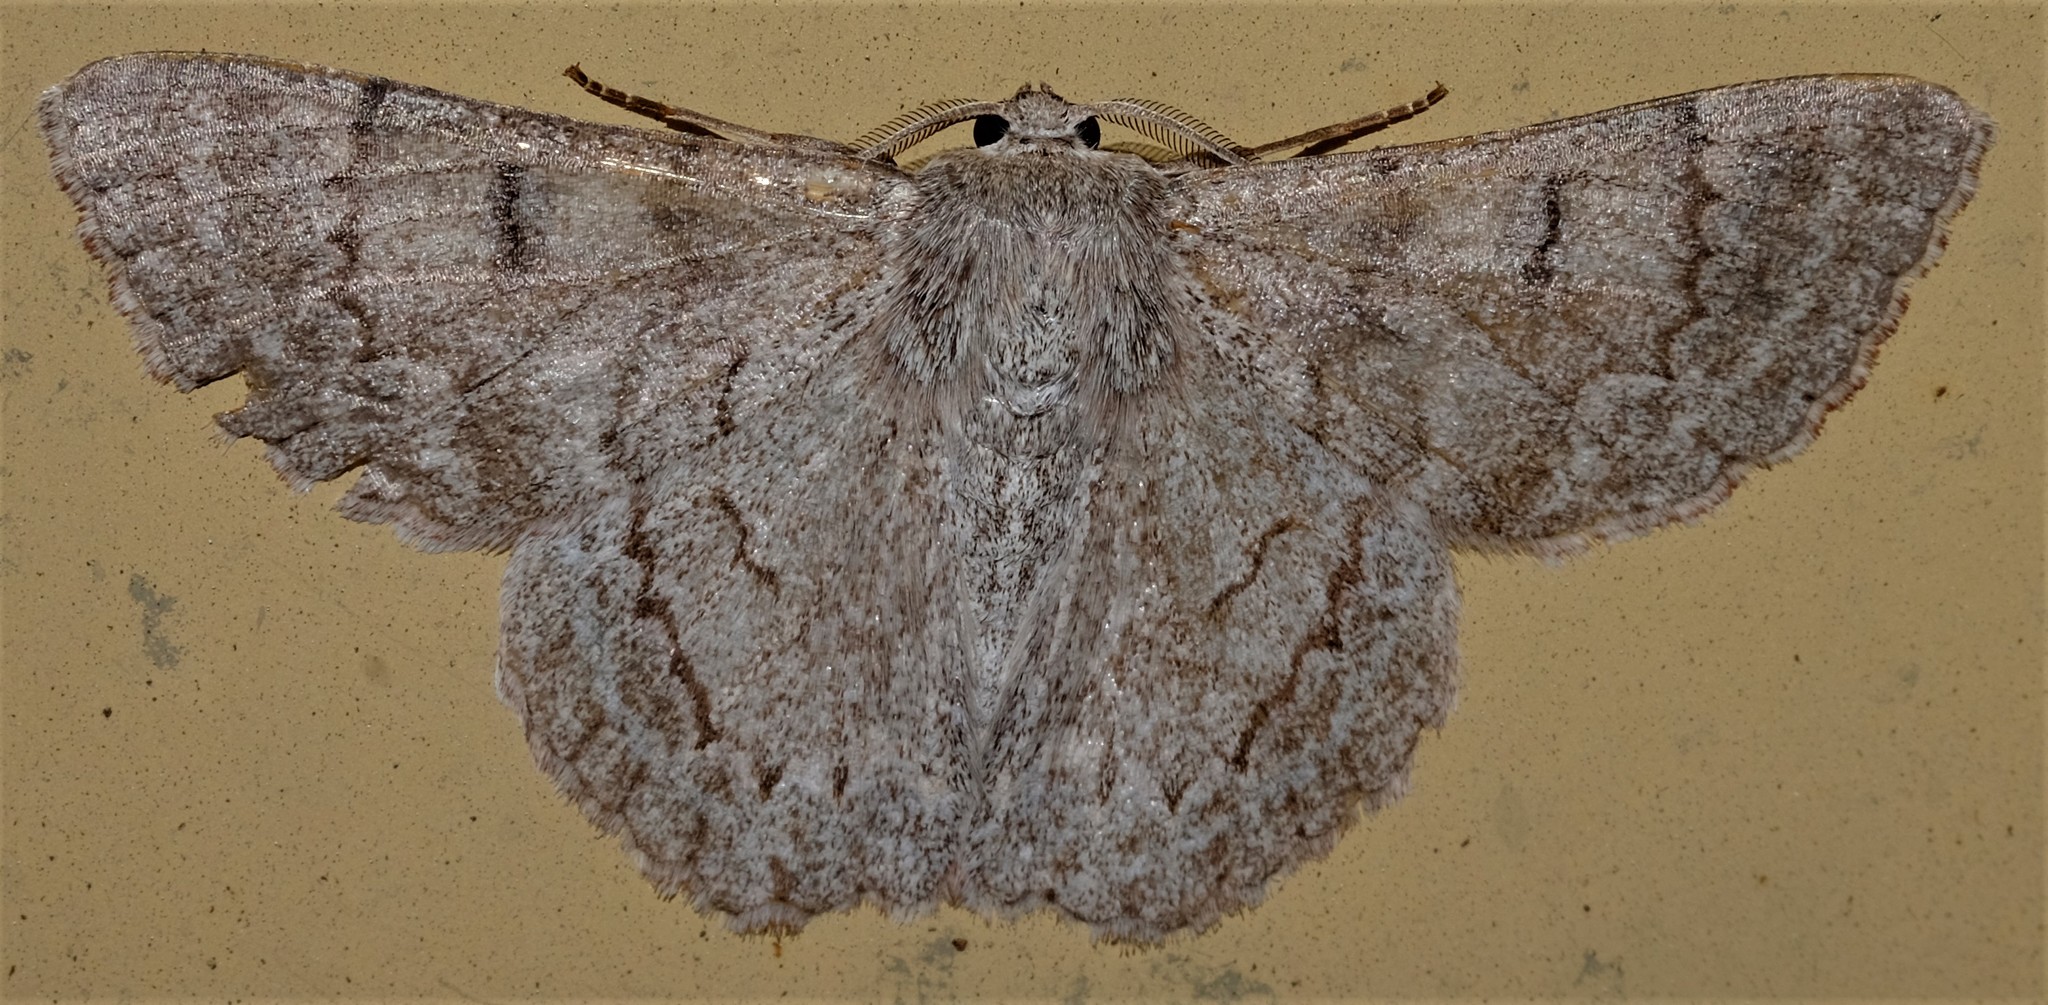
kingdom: Animalia
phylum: Arthropoda
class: Insecta
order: Lepidoptera
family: Geometridae
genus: Crypsiphona
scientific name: Crypsiphona ocultaria
